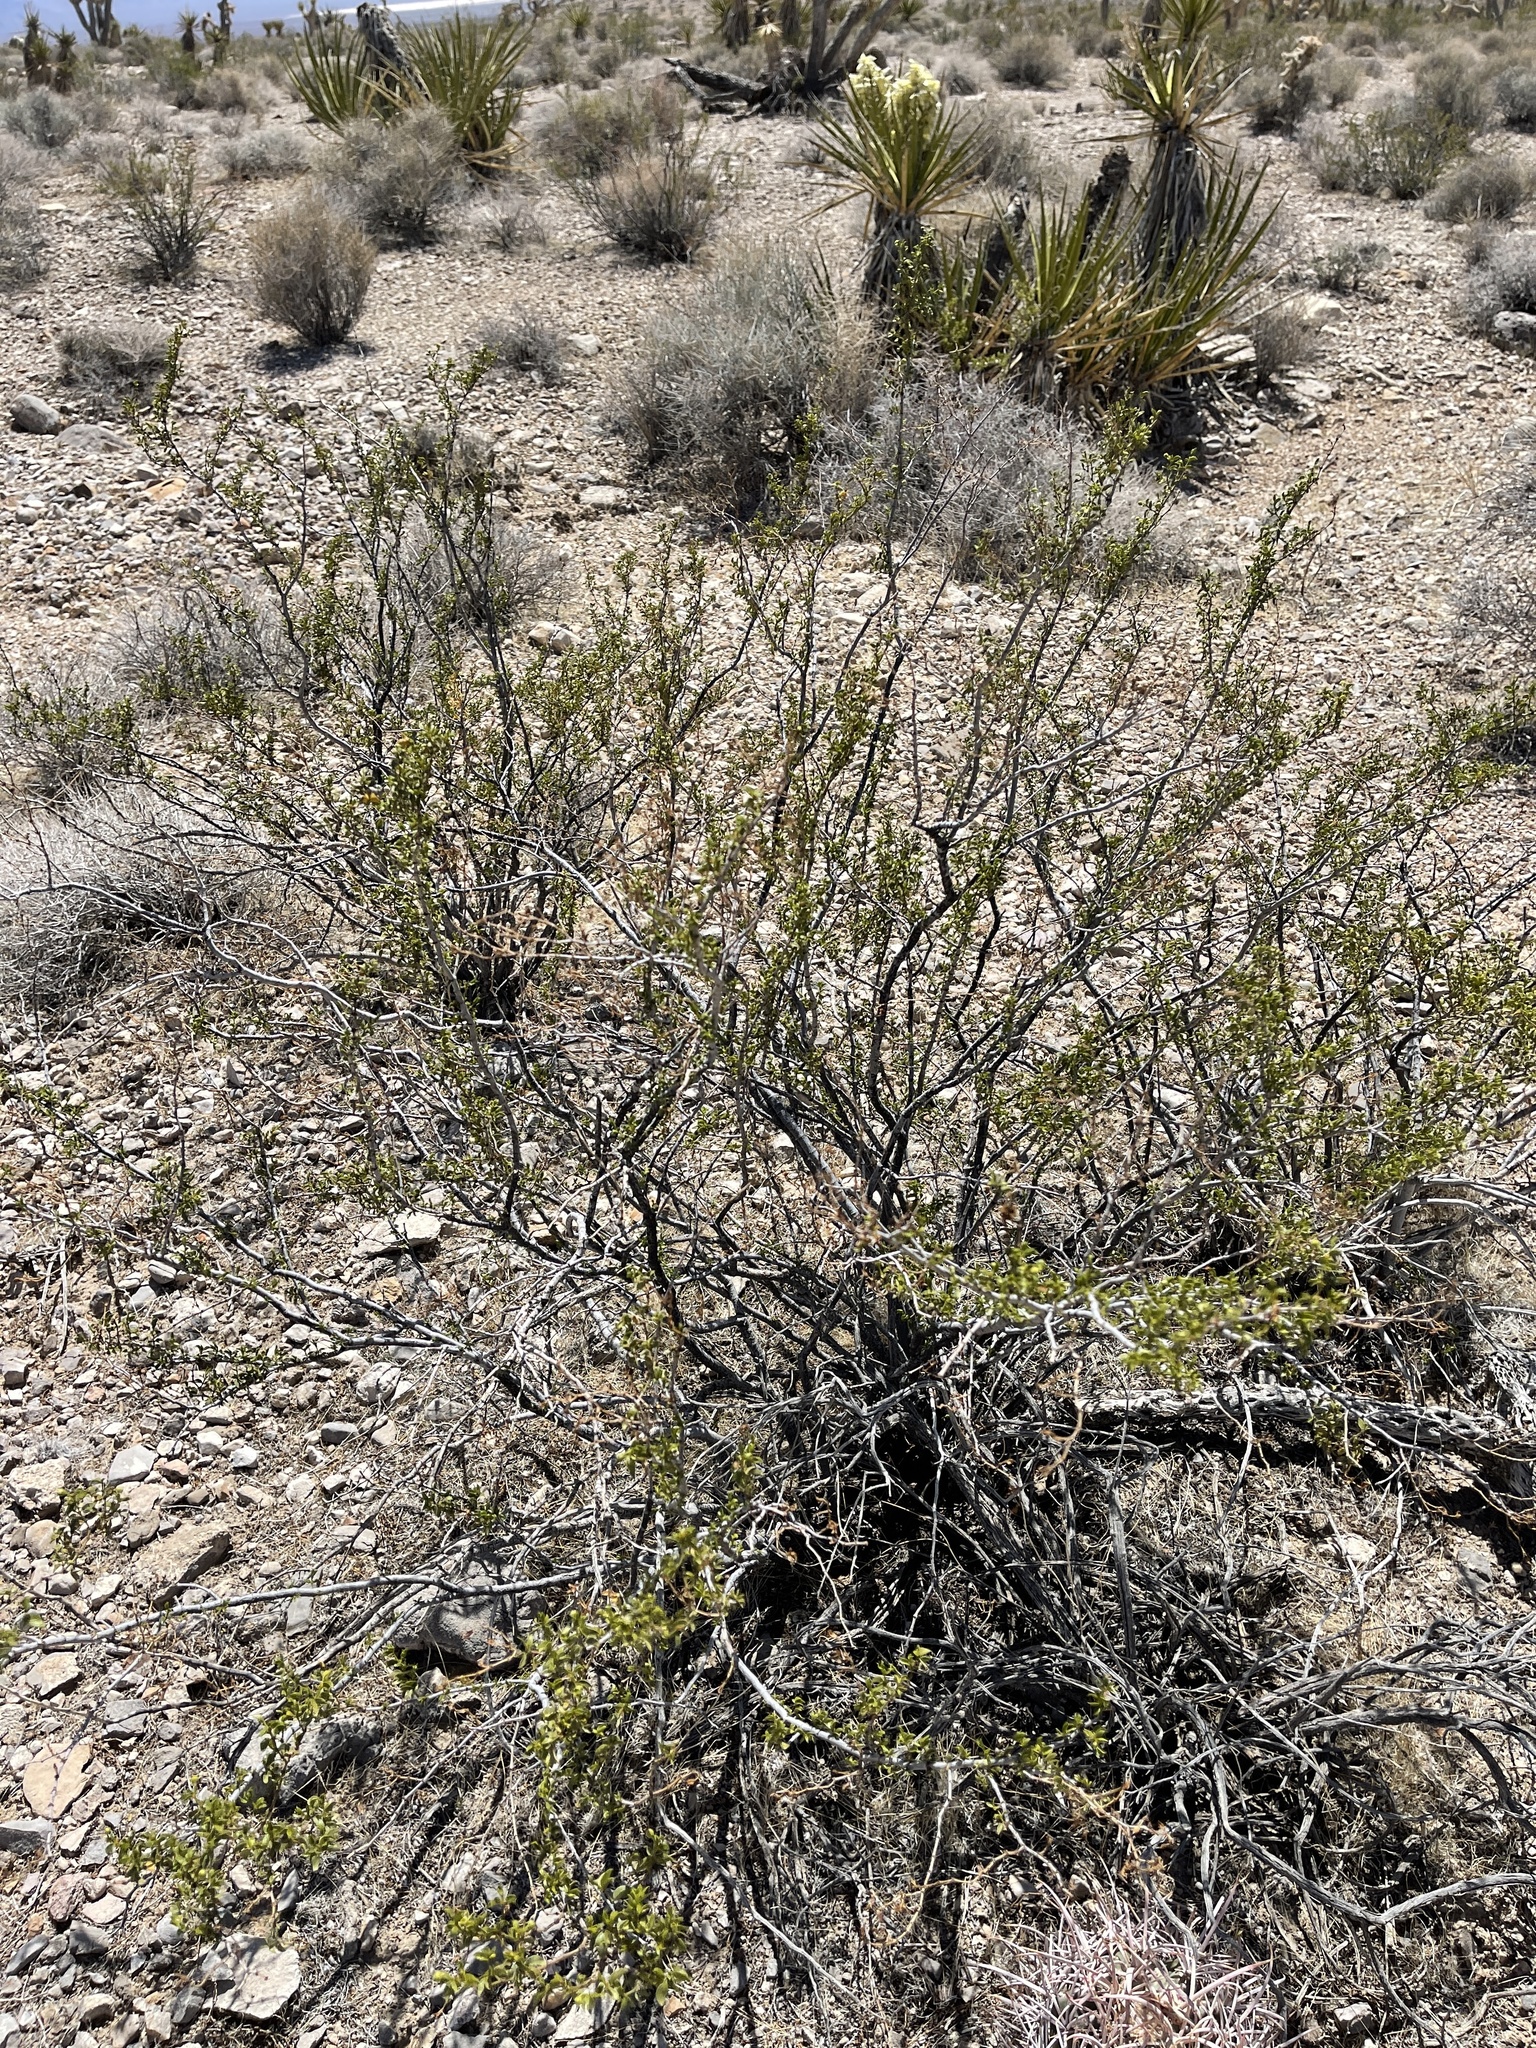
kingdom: Plantae
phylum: Tracheophyta
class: Magnoliopsida
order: Zygophyllales
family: Zygophyllaceae
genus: Larrea
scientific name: Larrea tridentata
